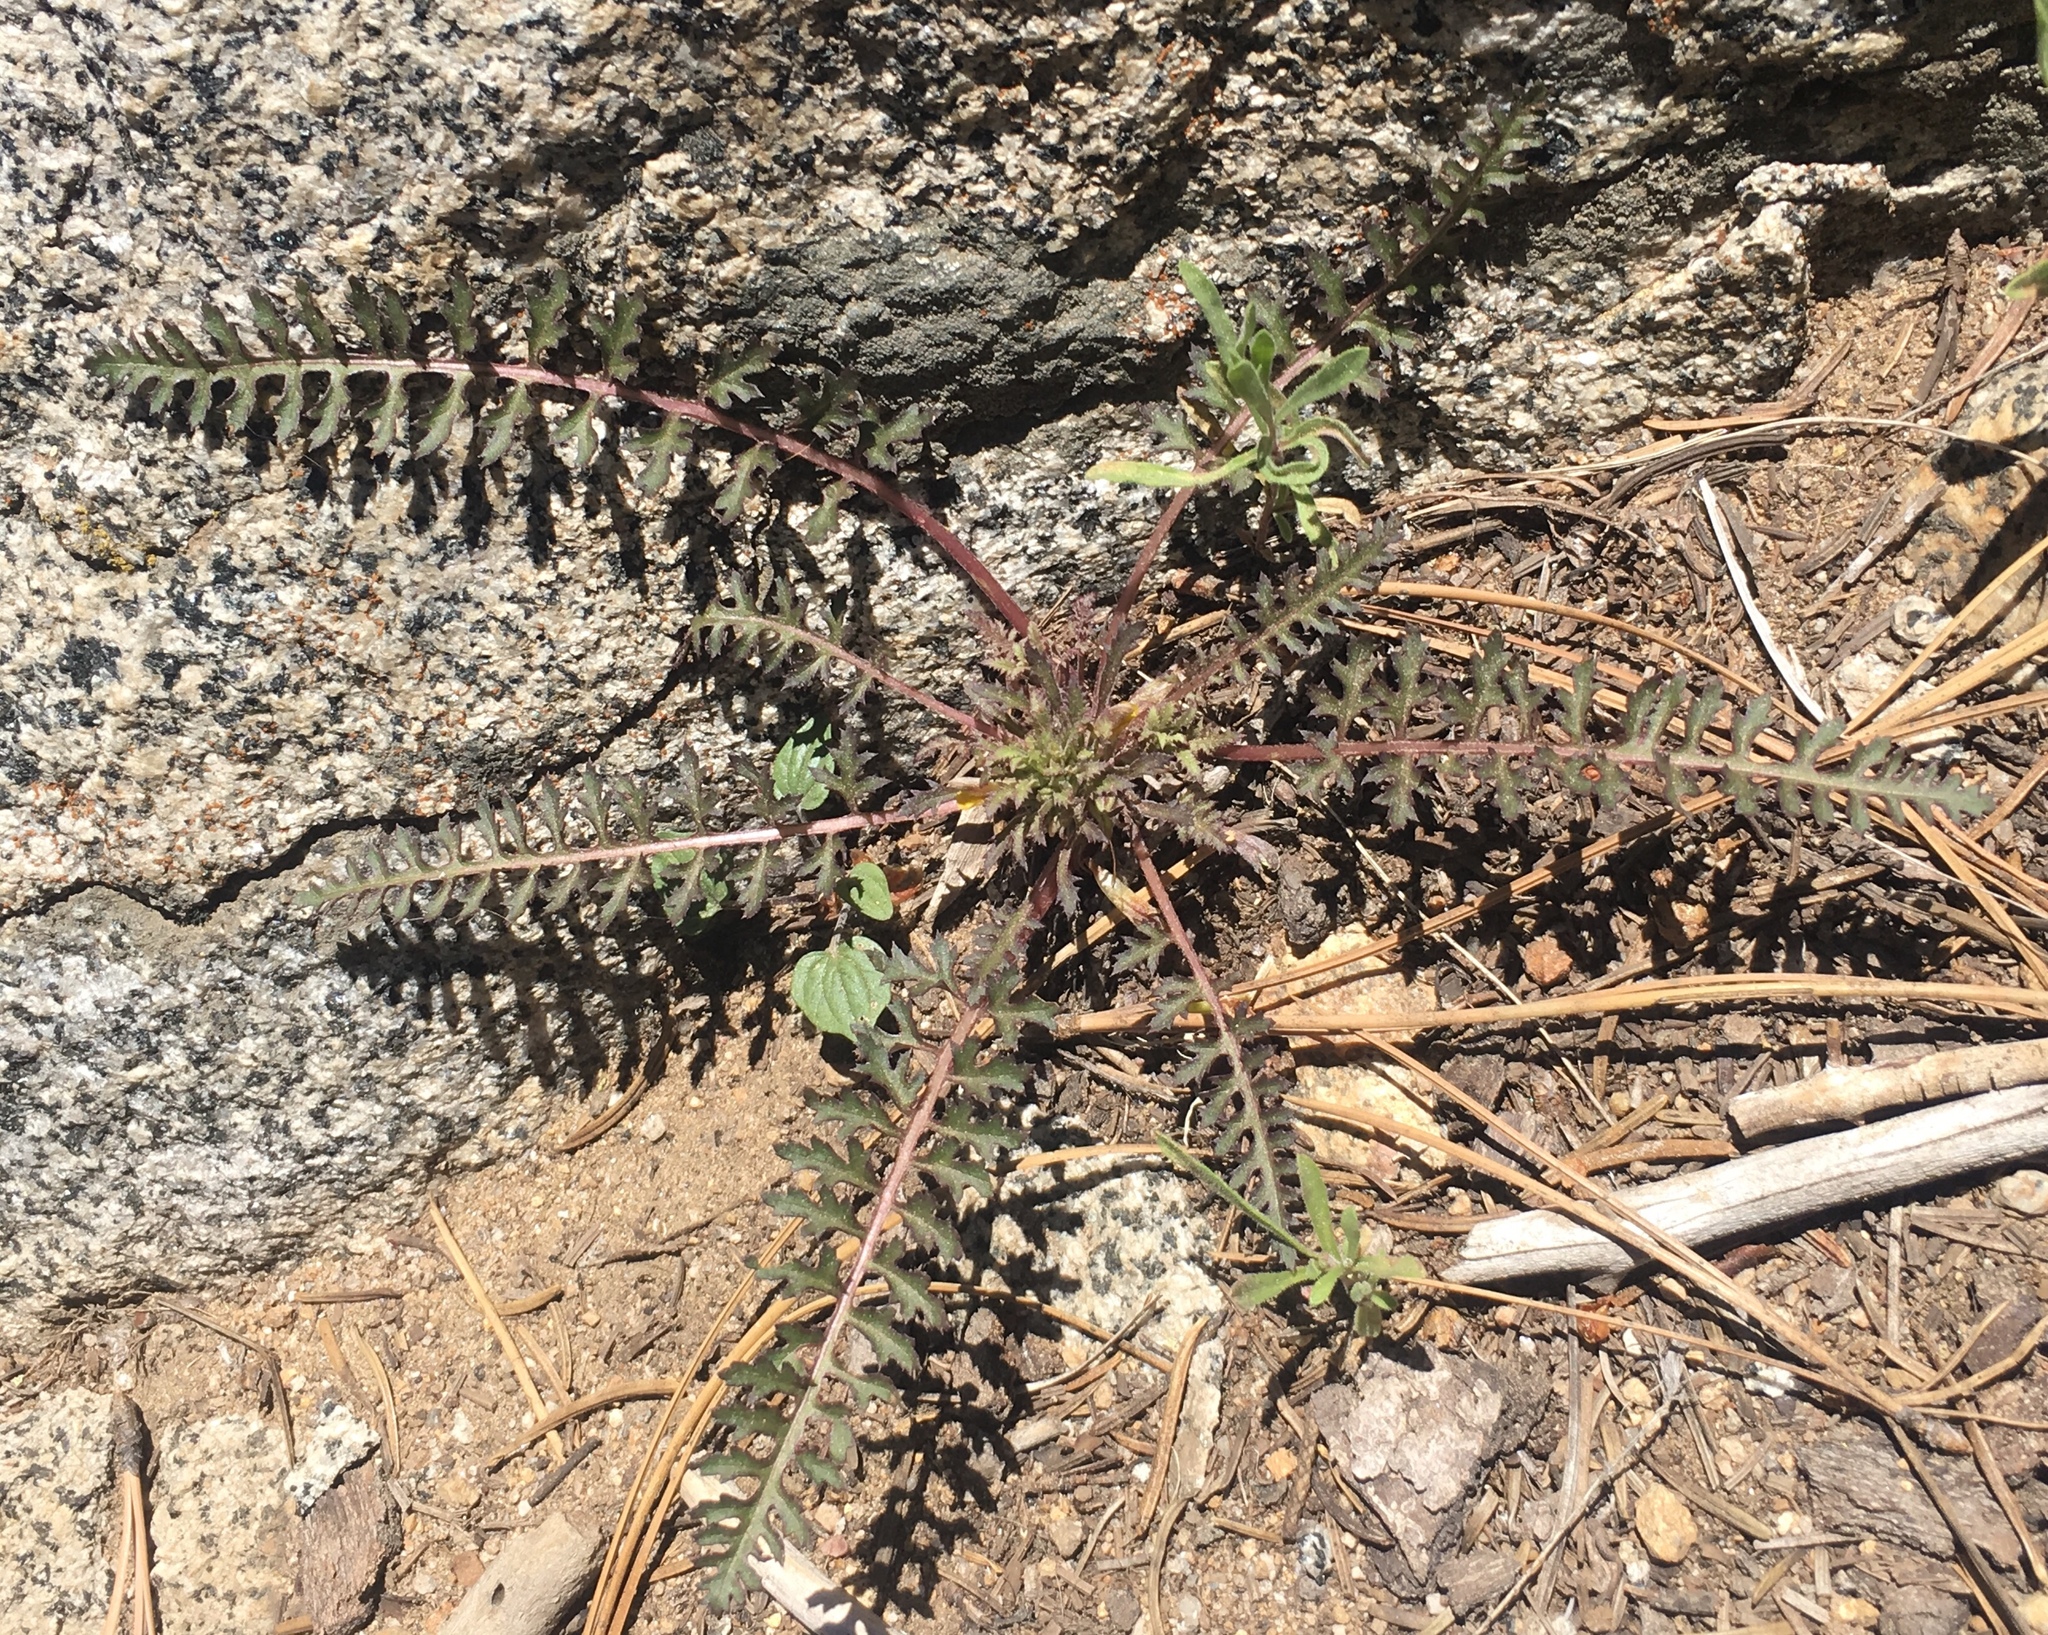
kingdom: Plantae
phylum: Tracheophyta
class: Magnoliopsida
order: Lamiales
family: Orobanchaceae
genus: Pedicularis
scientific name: Pedicularis semibarbata
